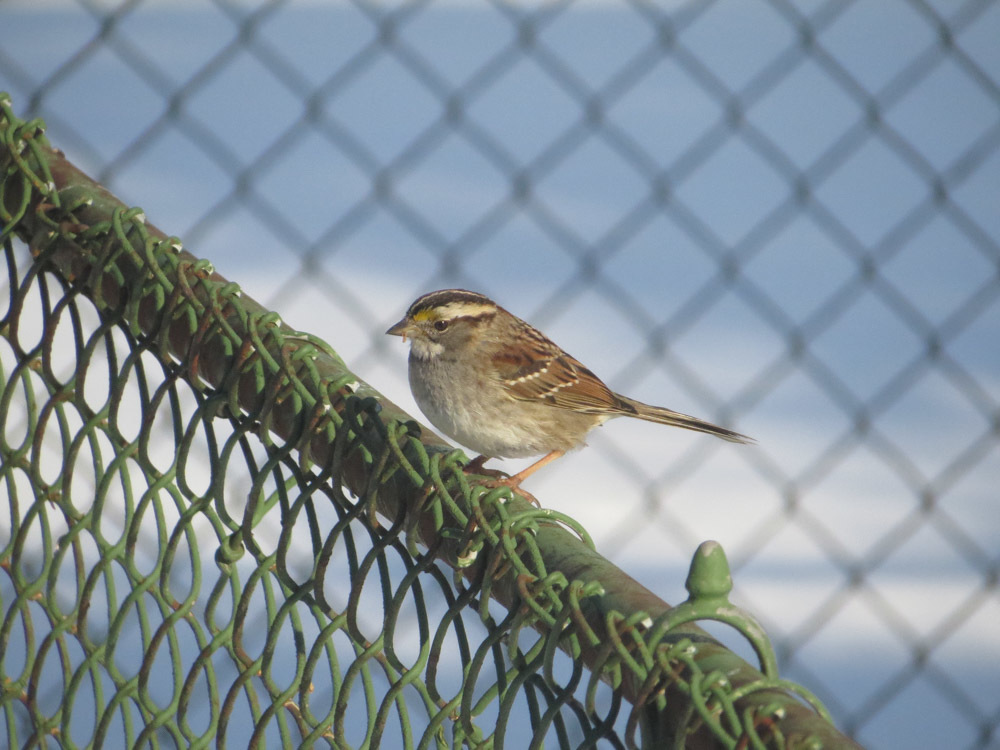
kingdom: Animalia
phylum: Chordata
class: Aves
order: Passeriformes
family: Passerellidae
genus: Zonotrichia
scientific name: Zonotrichia albicollis
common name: White-throated sparrow
